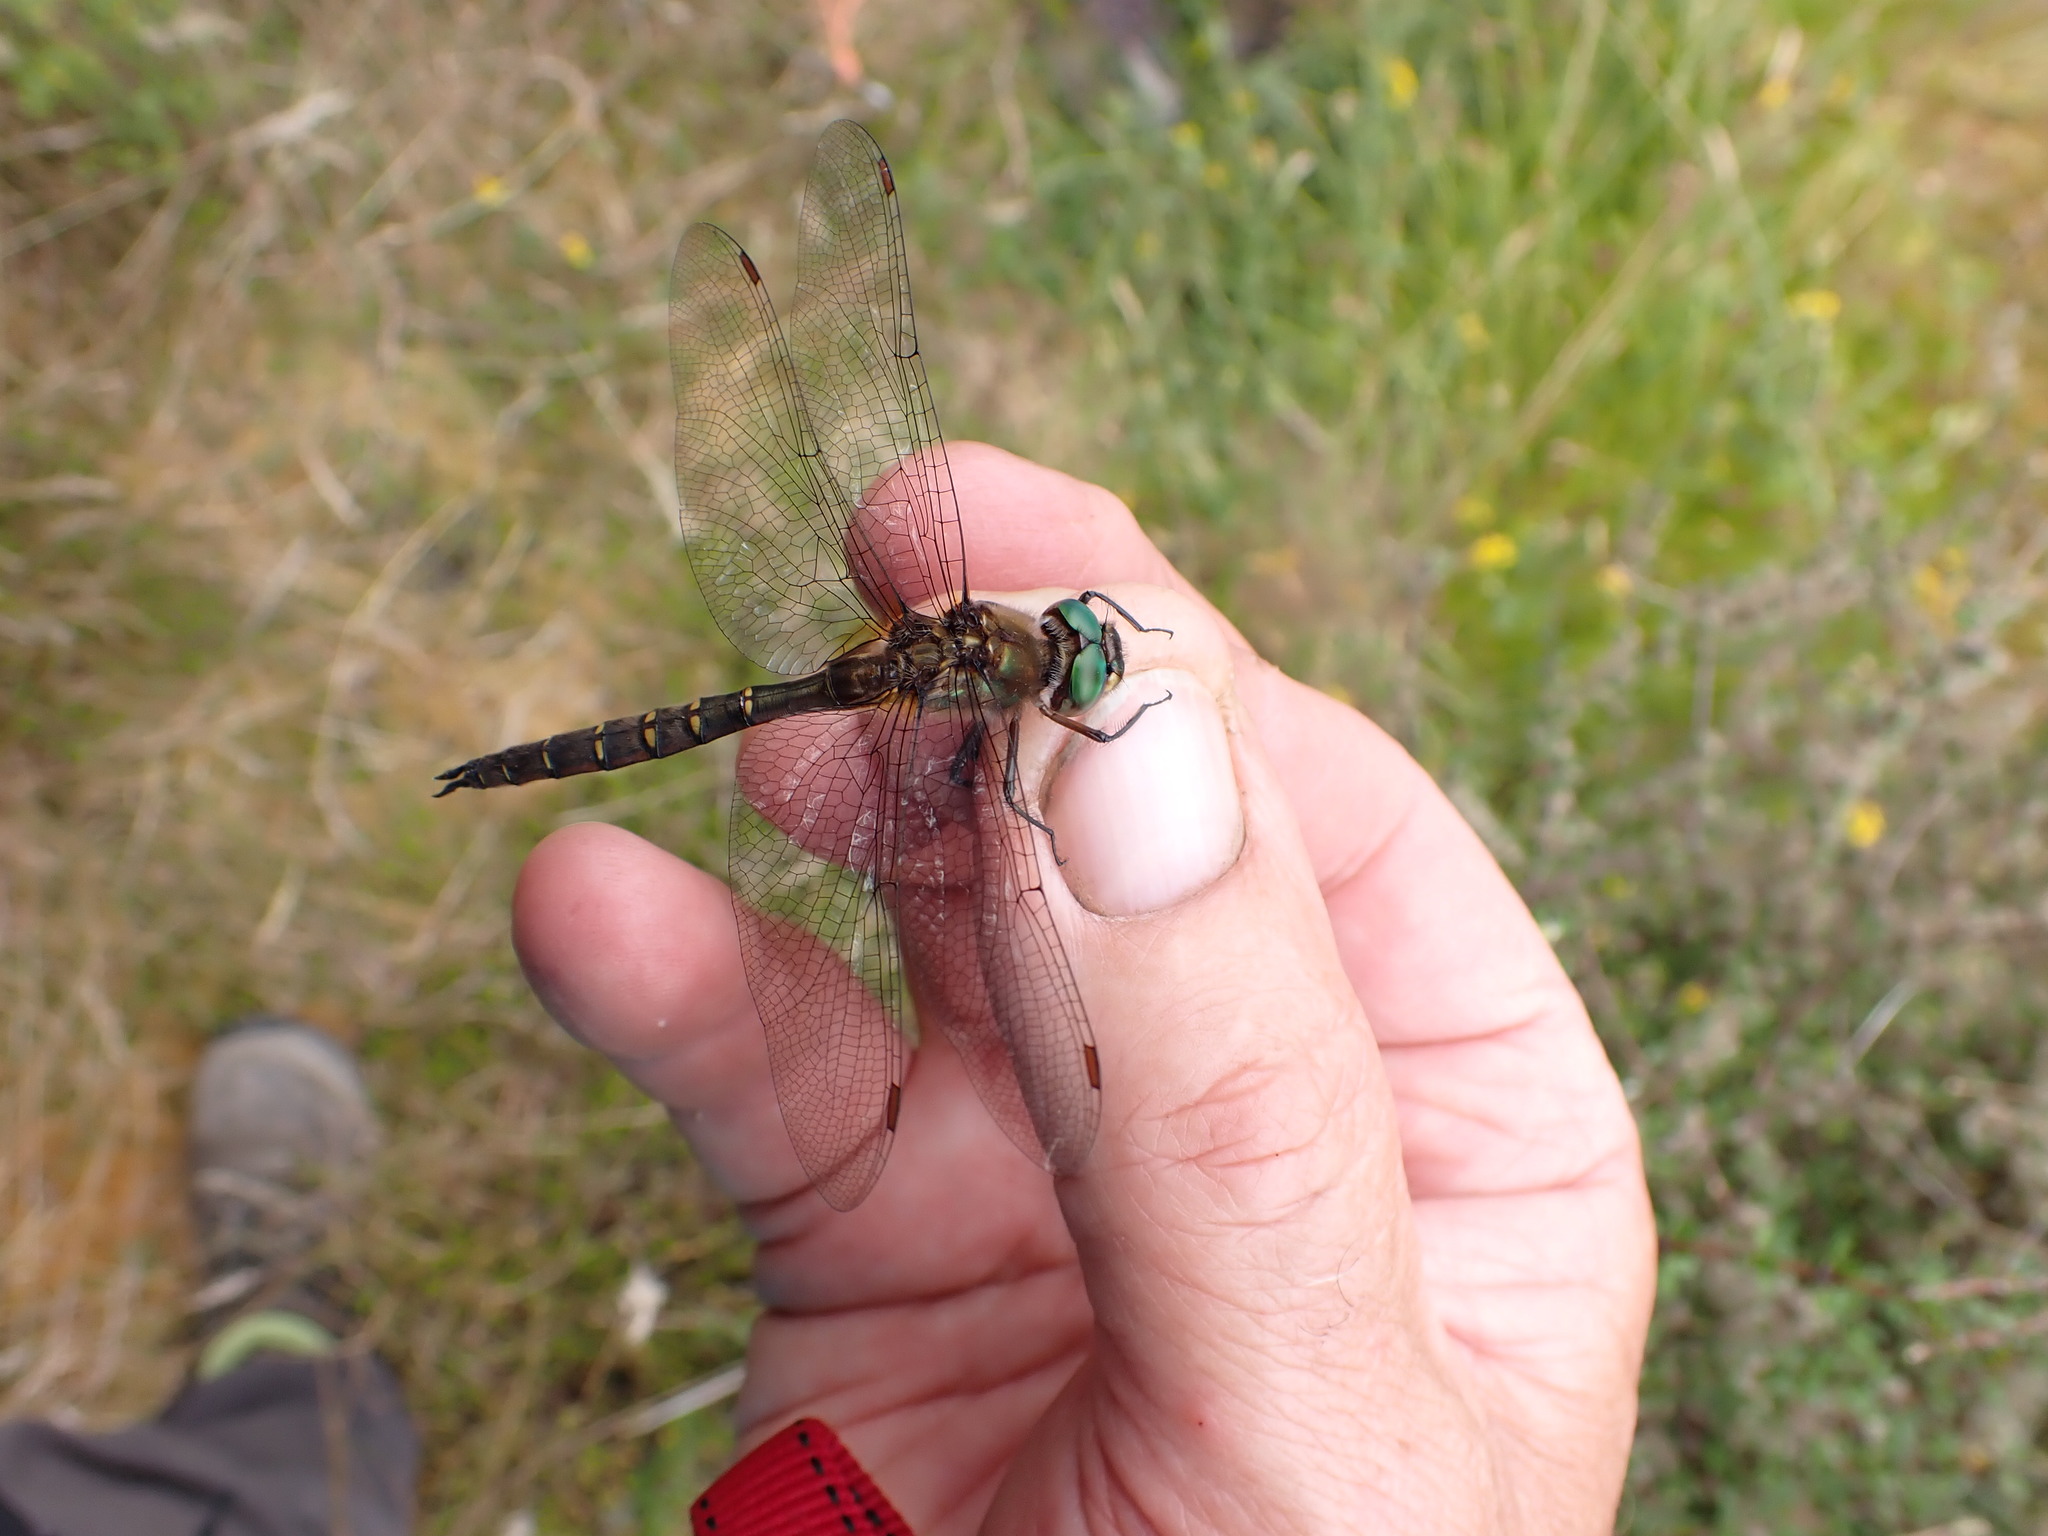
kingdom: Animalia
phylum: Arthropoda
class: Insecta
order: Odonata
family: Corduliidae
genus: Procordulia
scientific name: Procordulia smithii
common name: Ranger dragonfly
